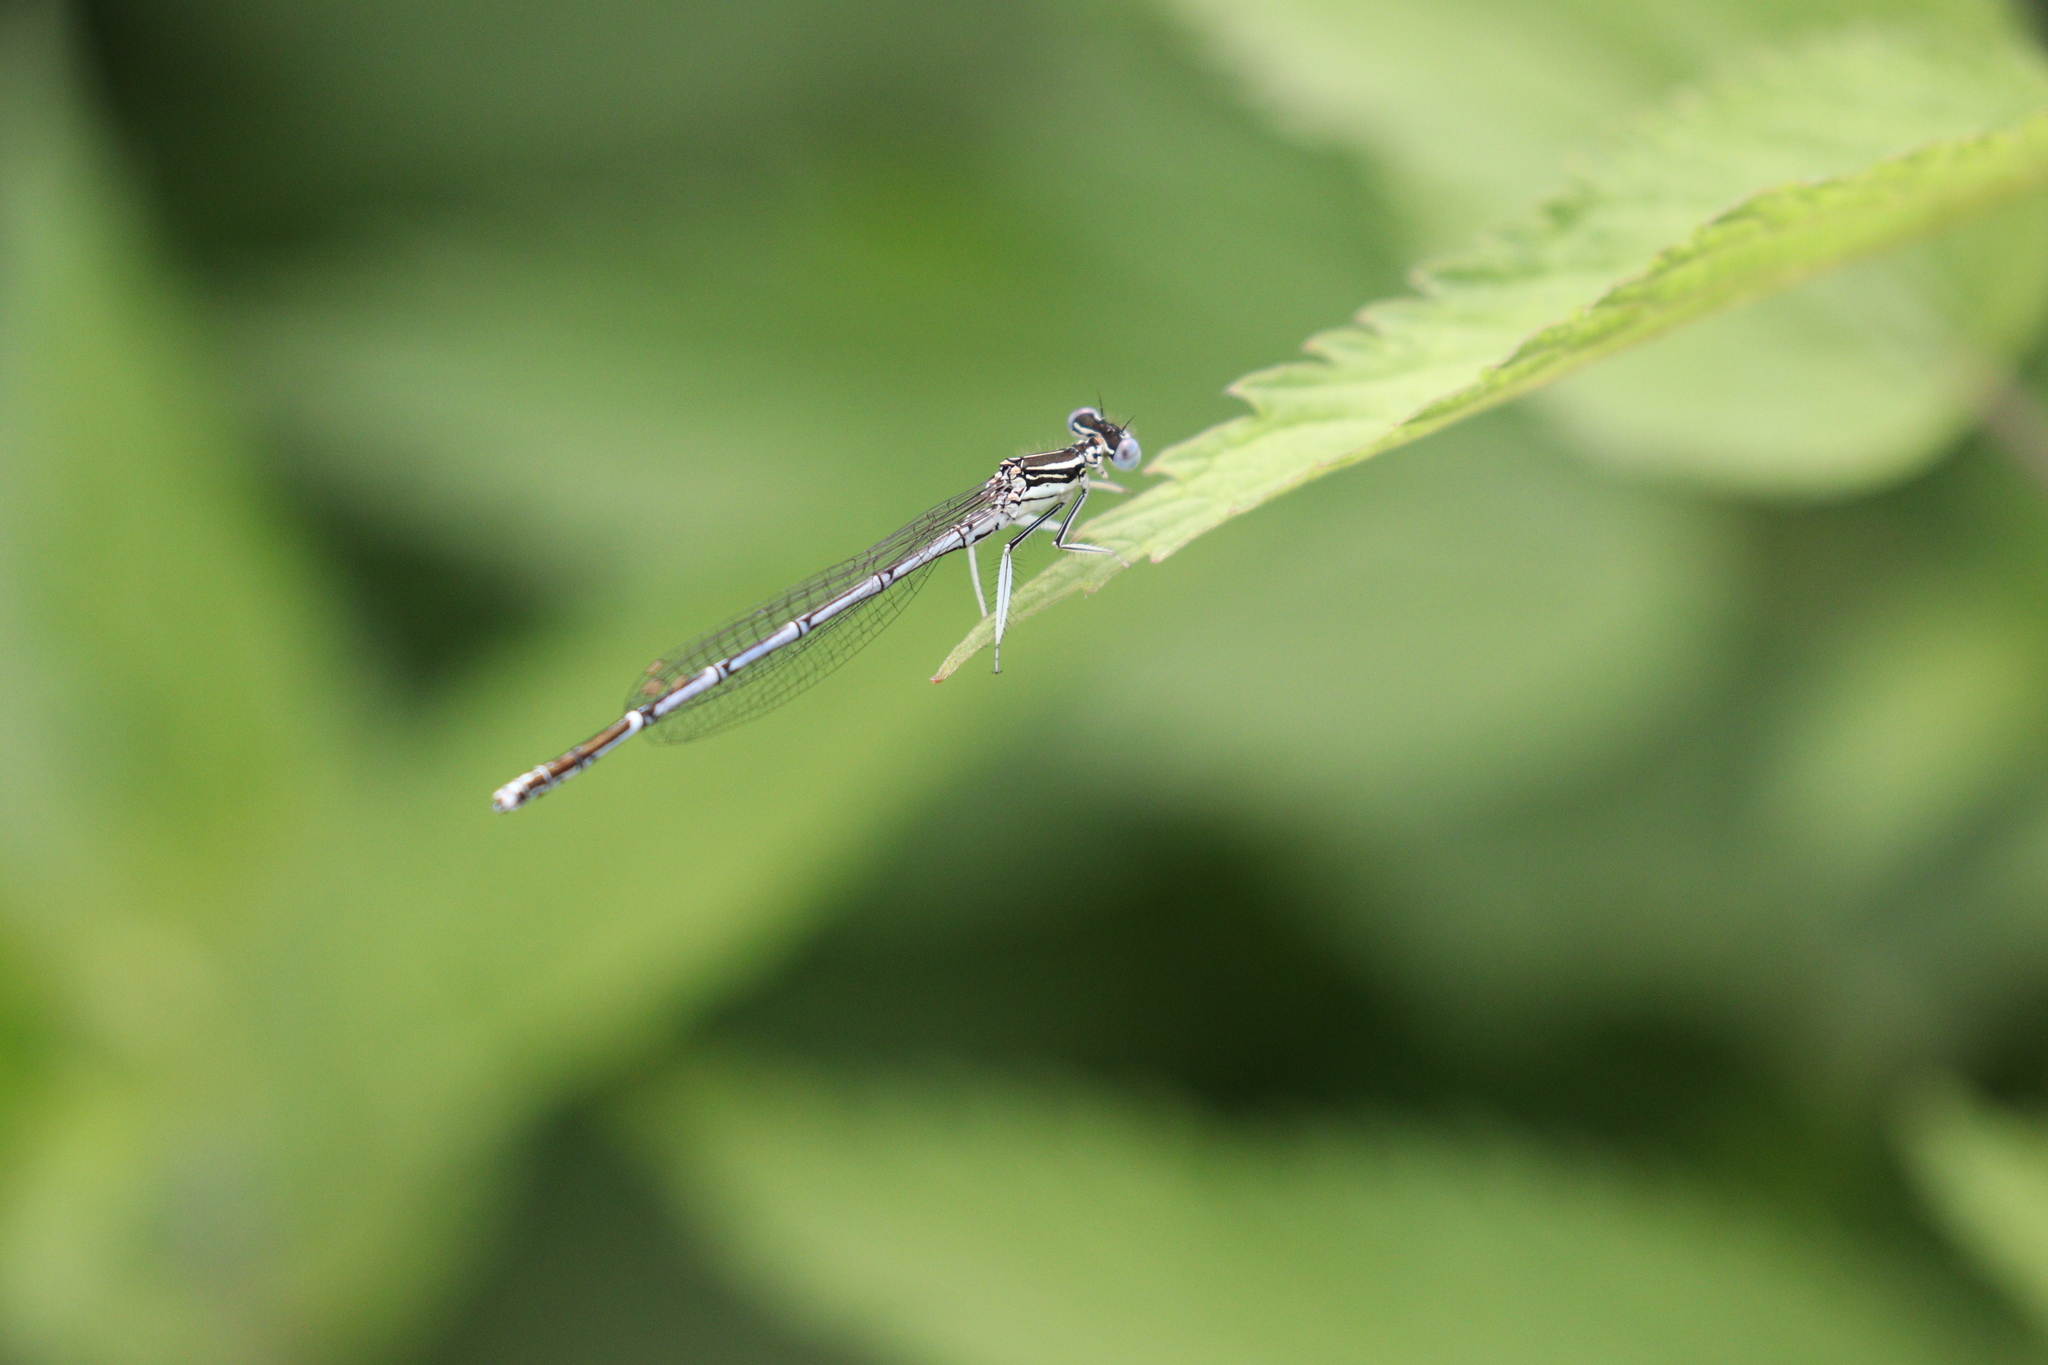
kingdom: Animalia
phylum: Arthropoda
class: Insecta
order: Odonata
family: Platycnemididae
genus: Platycnemis
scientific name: Platycnemis pennipes
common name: White-legged damselfly
